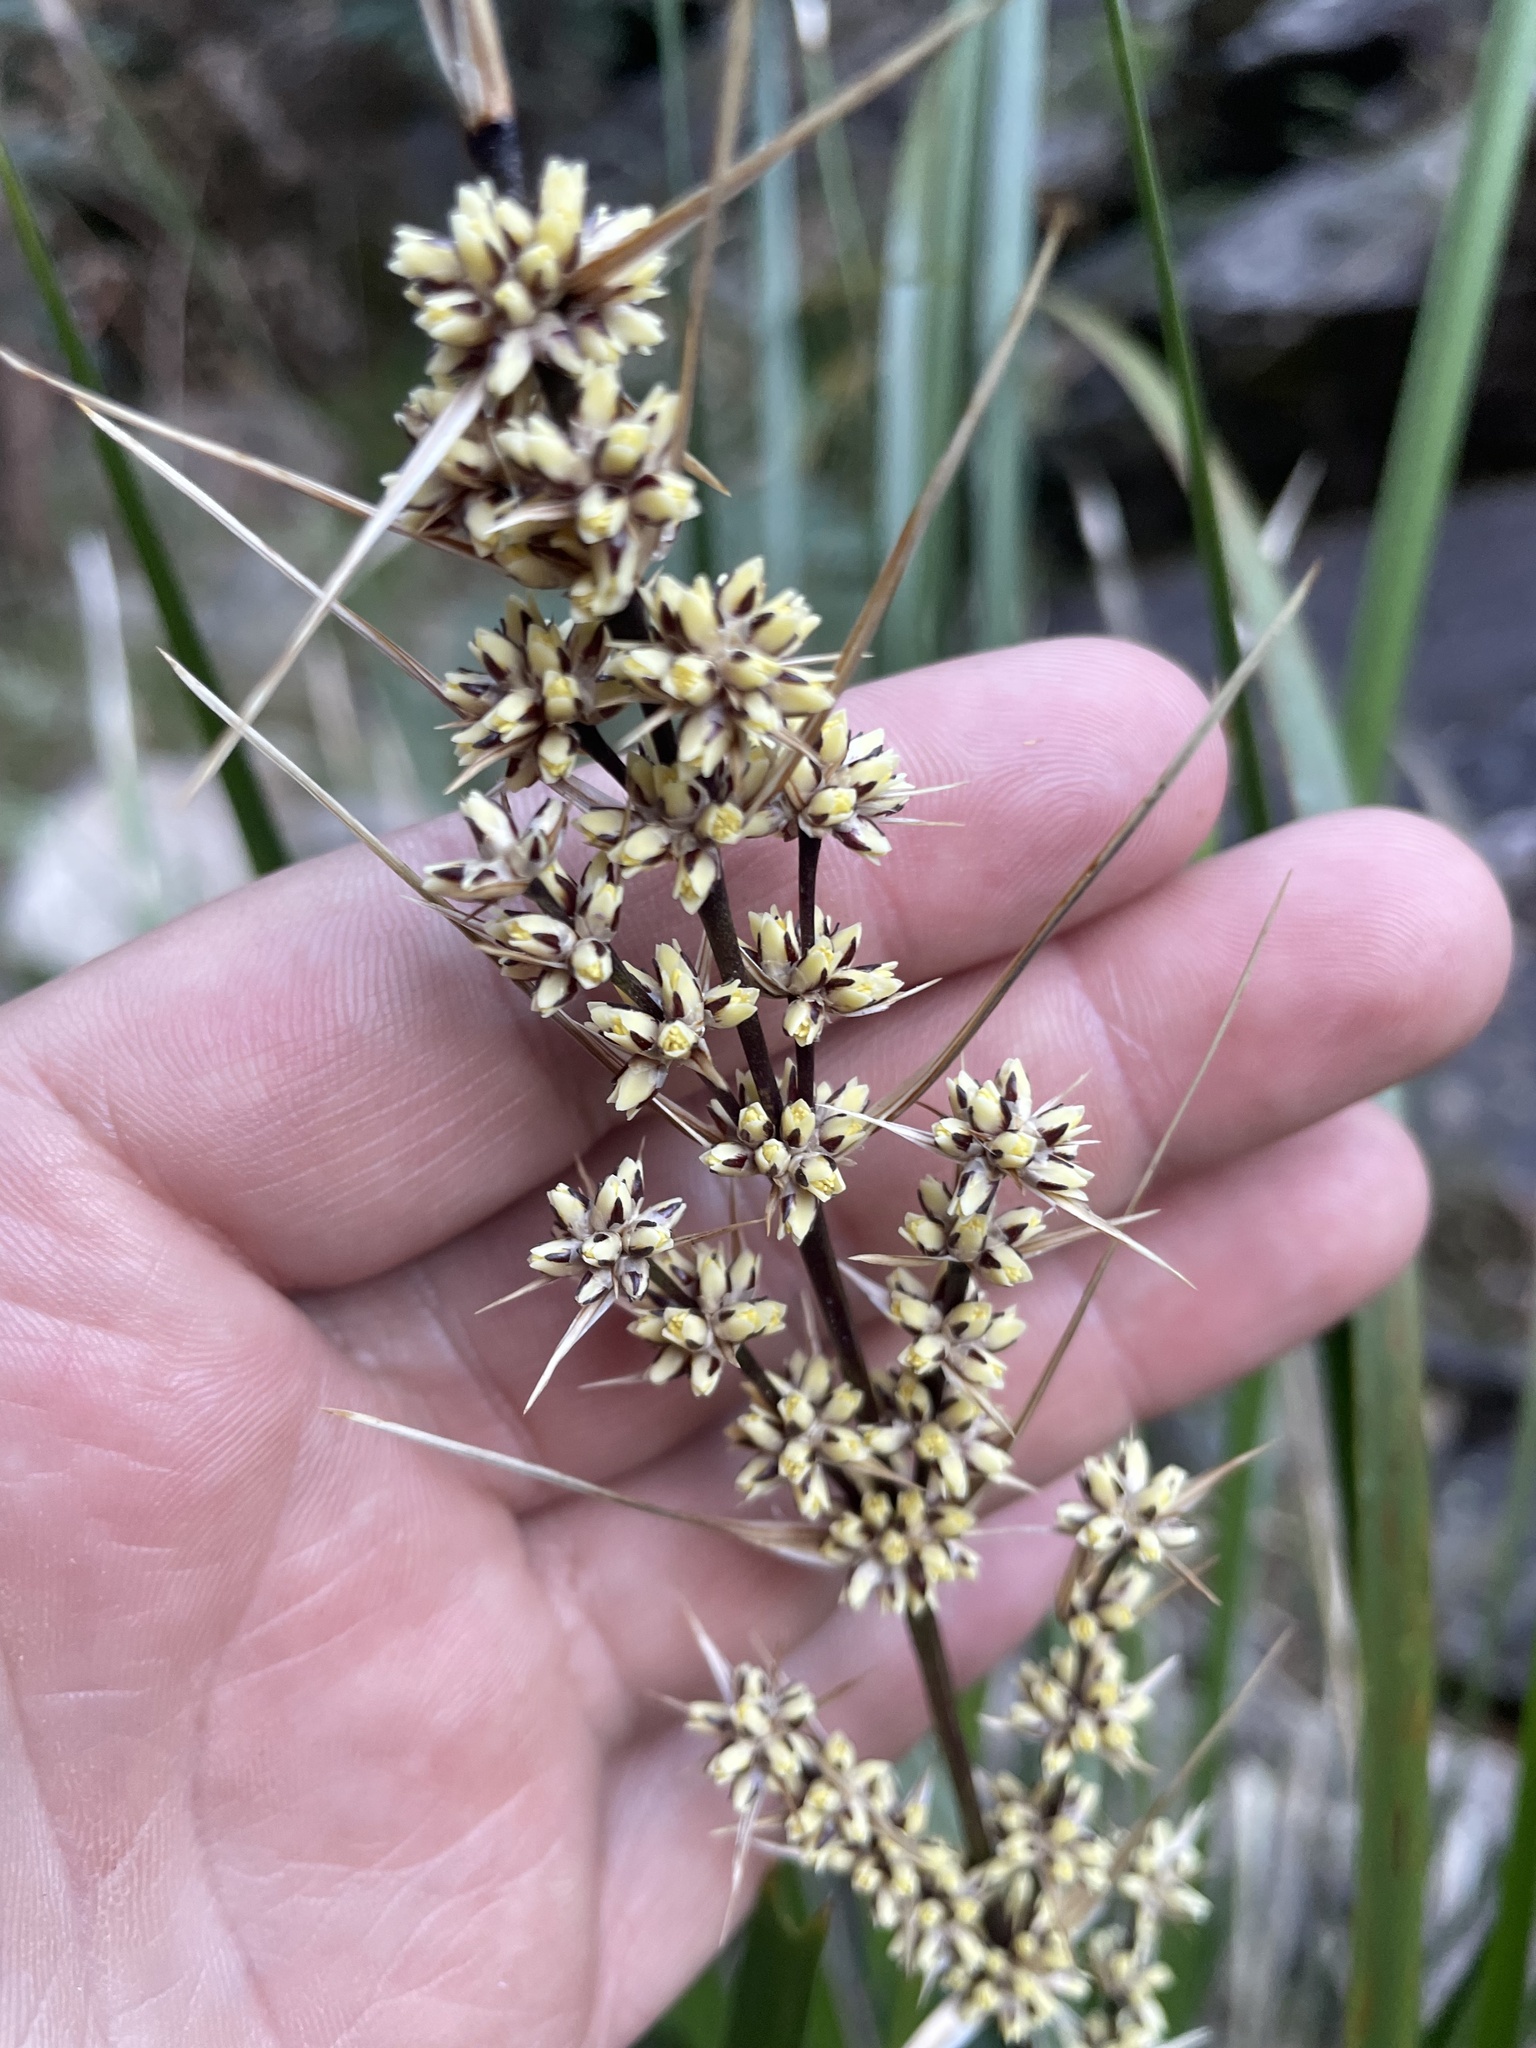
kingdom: Plantae
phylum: Tracheophyta
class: Liliopsida
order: Asparagales
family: Asparagaceae
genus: Lomandra
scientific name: Lomandra longifolia
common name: Longleaf mat-rush
